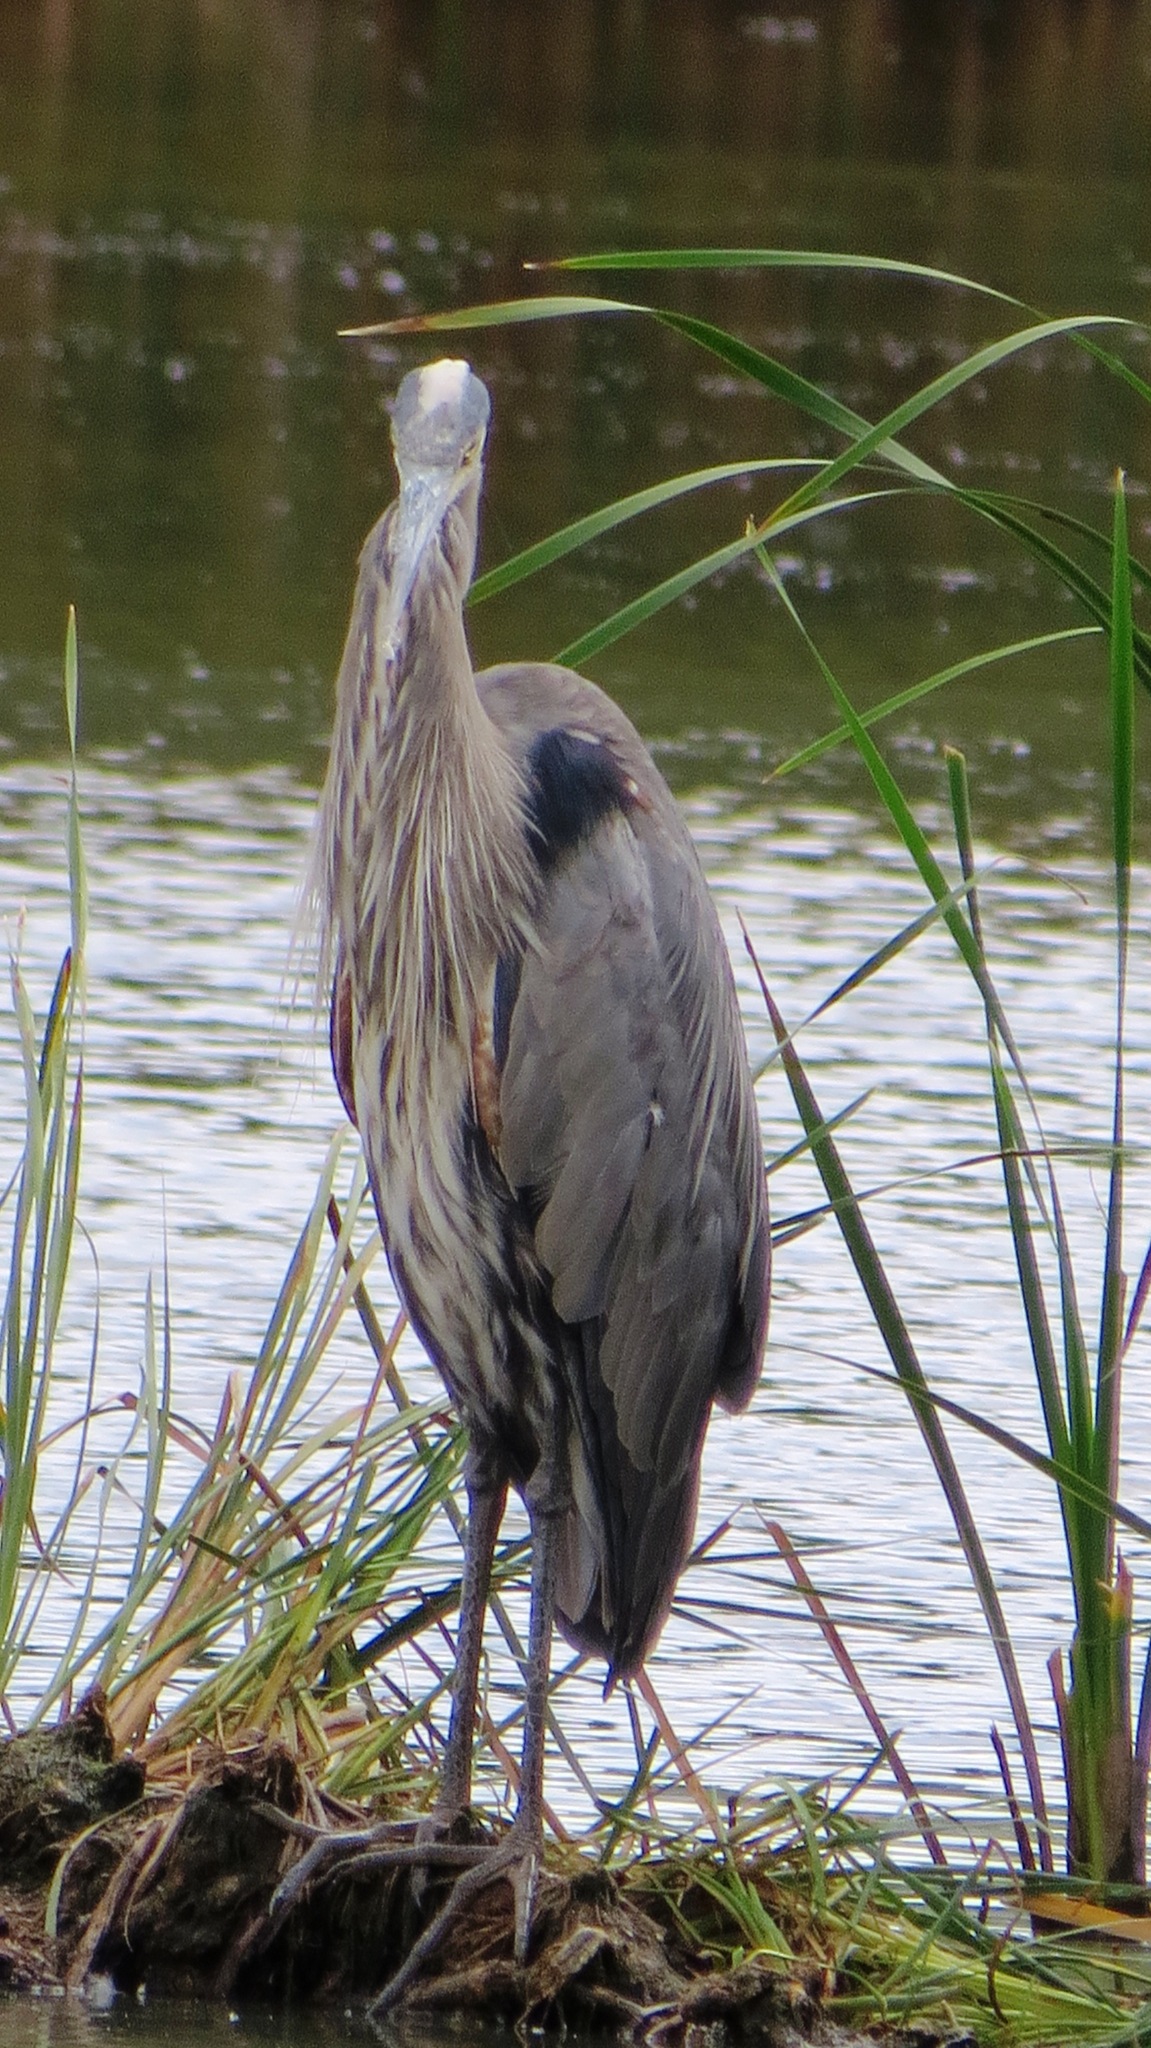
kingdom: Animalia
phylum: Chordata
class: Aves
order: Pelecaniformes
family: Ardeidae
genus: Ardea
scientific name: Ardea herodias
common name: Great blue heron
